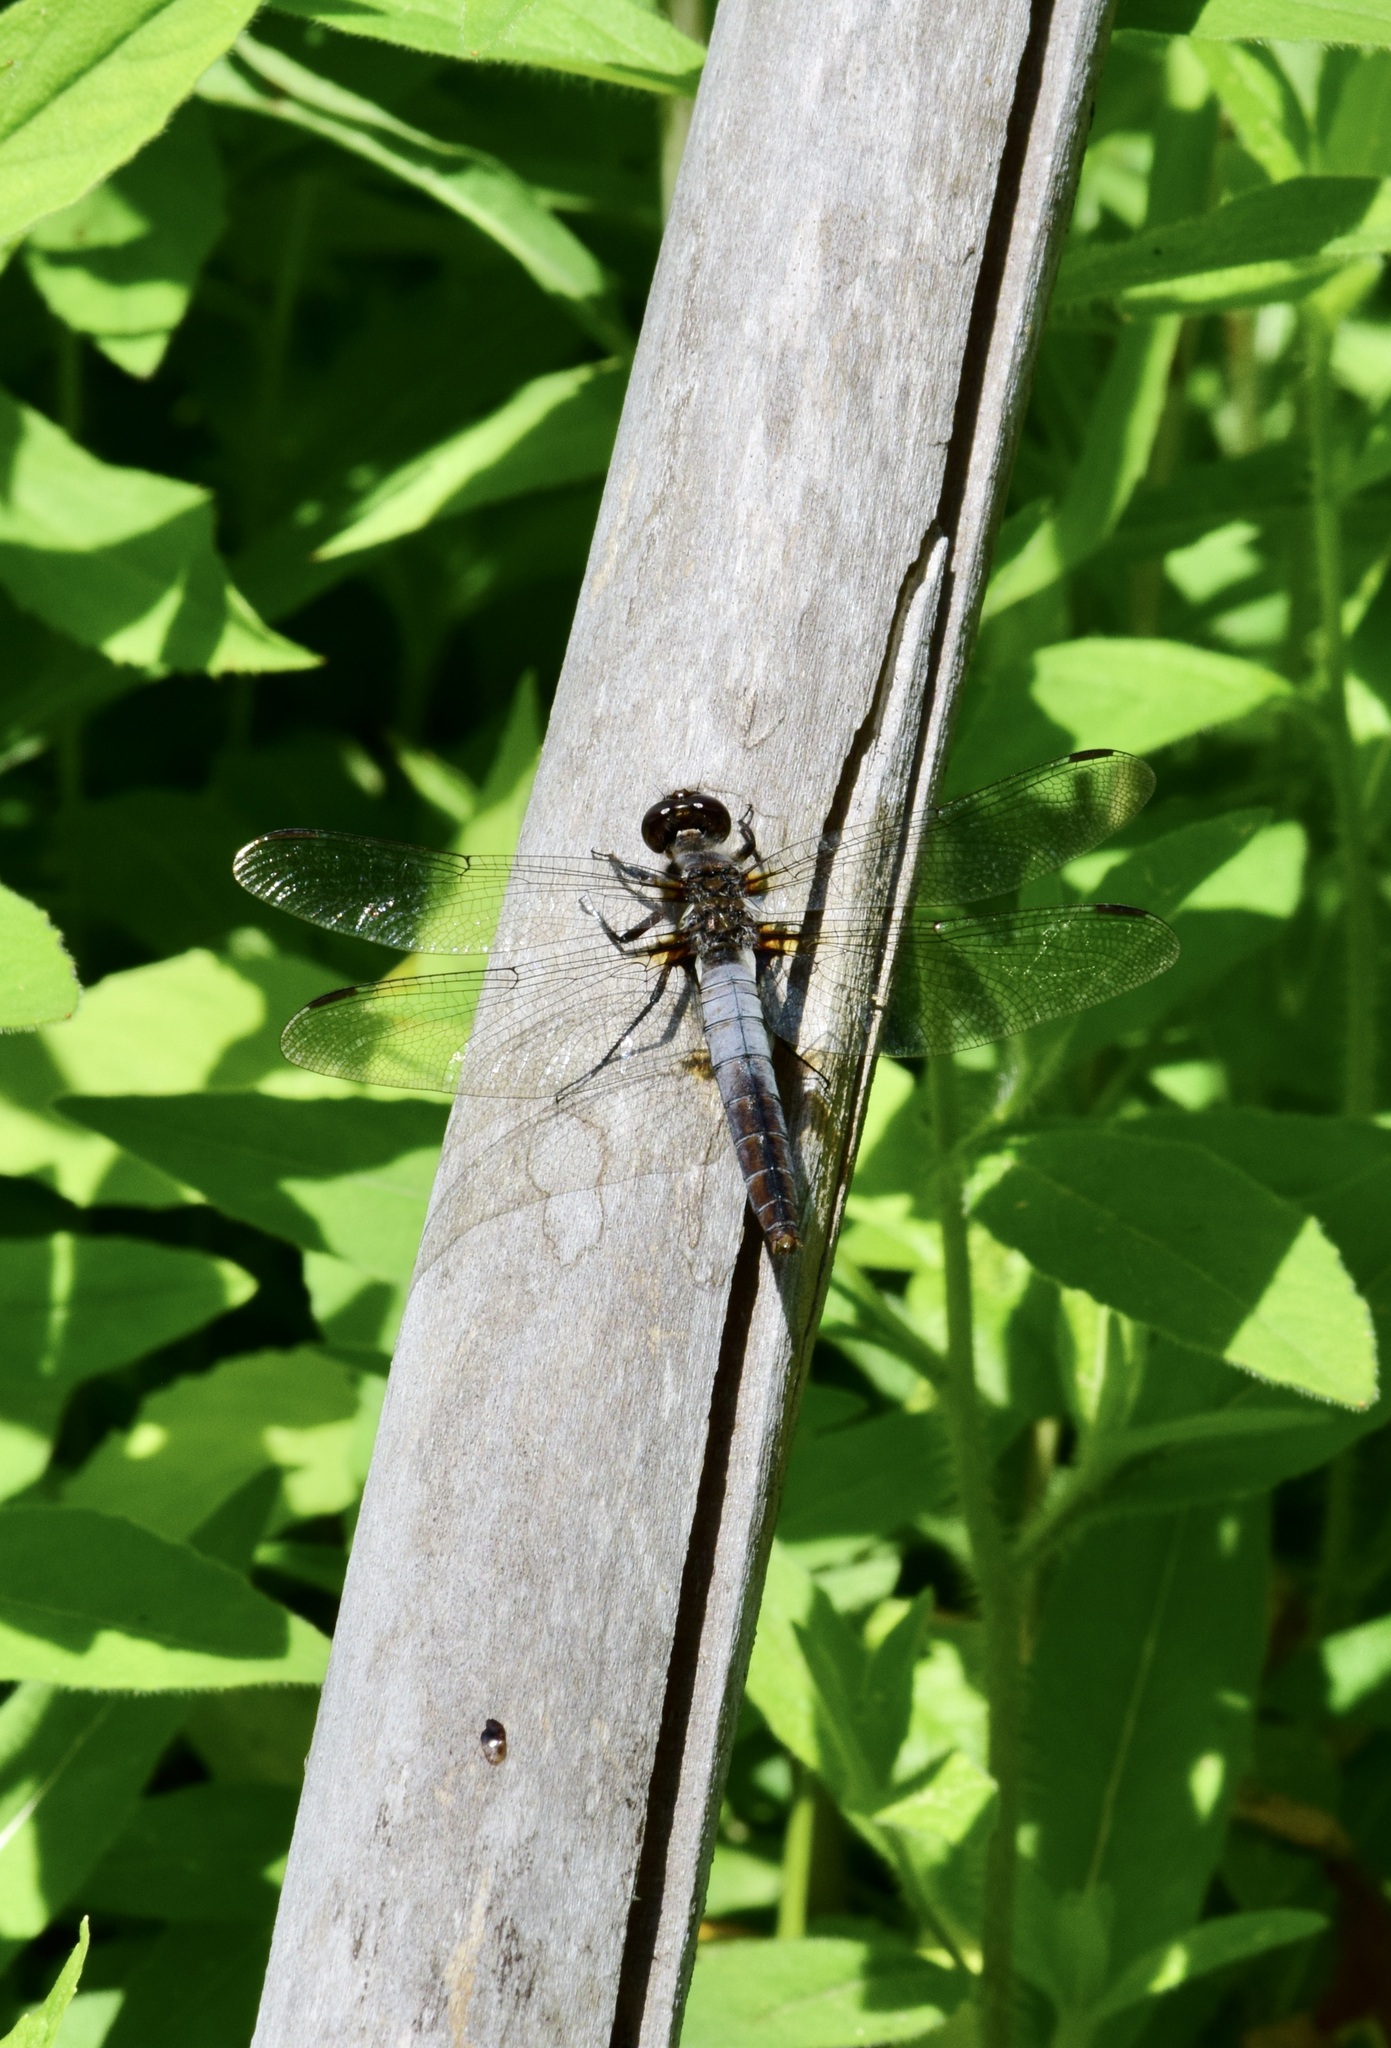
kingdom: Animalia
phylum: Arthropoda
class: Insecta
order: Odonata
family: Libellulidae
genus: Ladona
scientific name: Ladona julia
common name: Chalk-fronted corporal
